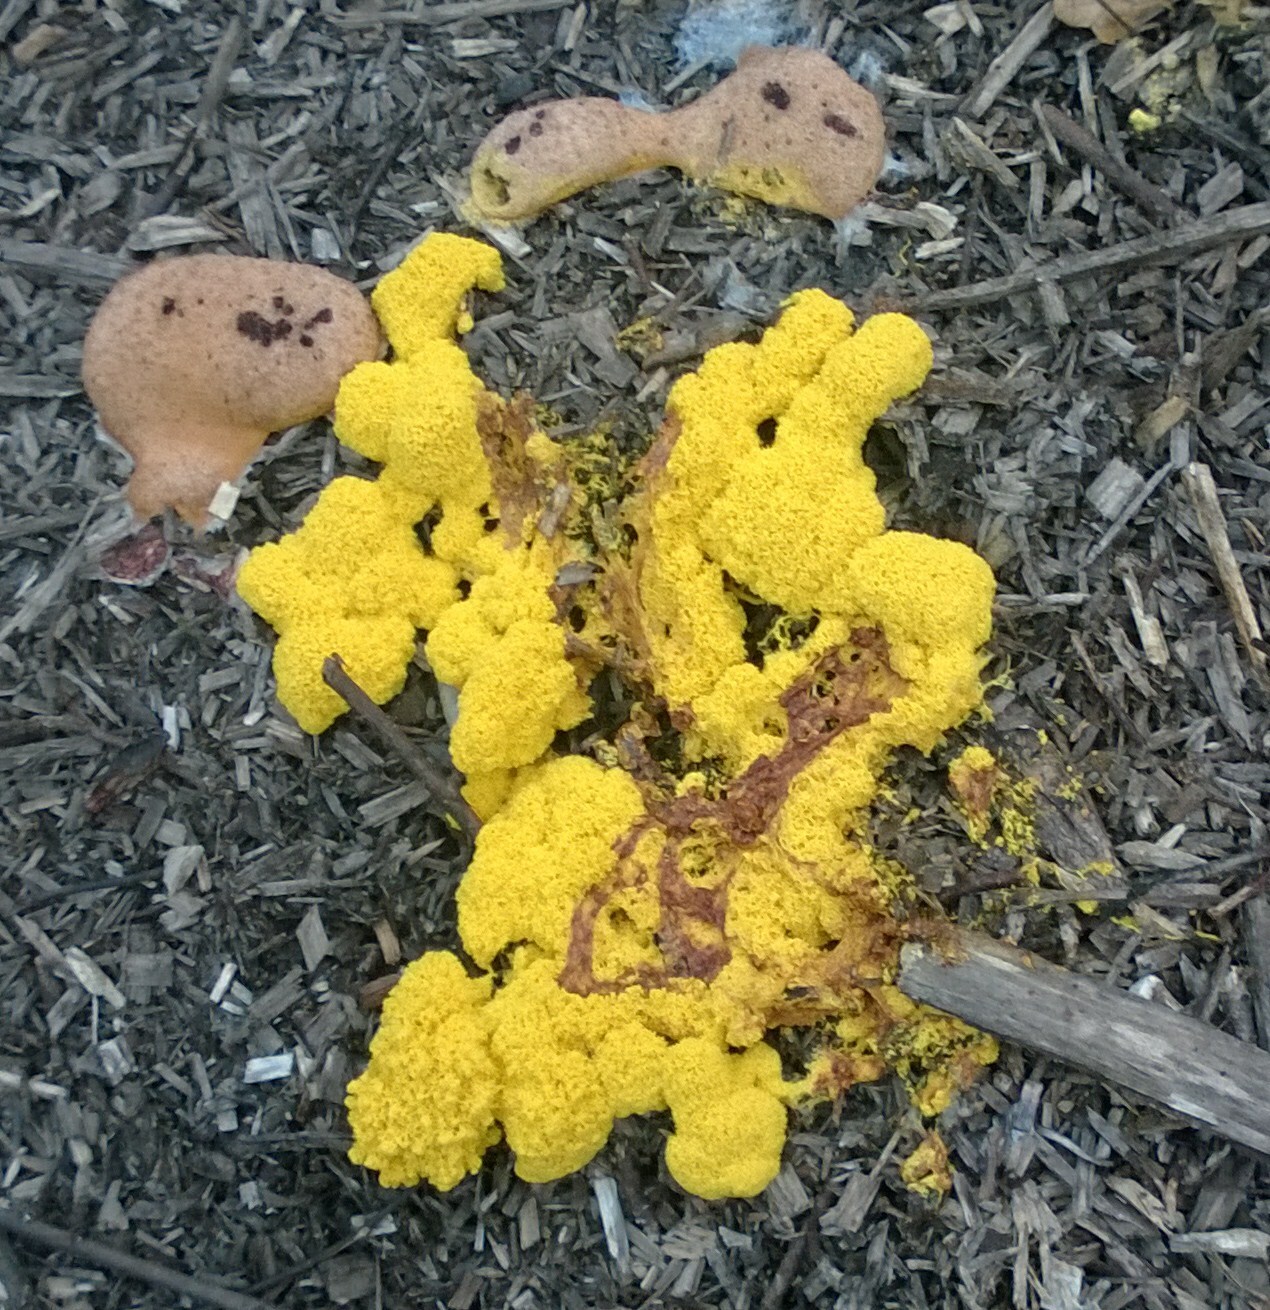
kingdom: Protozoa
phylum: Mycetozoa
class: Myxomycetes
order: Physarales
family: Physaraceae
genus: Fuligo
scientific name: Fuligo septica
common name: Dog vomit slime mold
